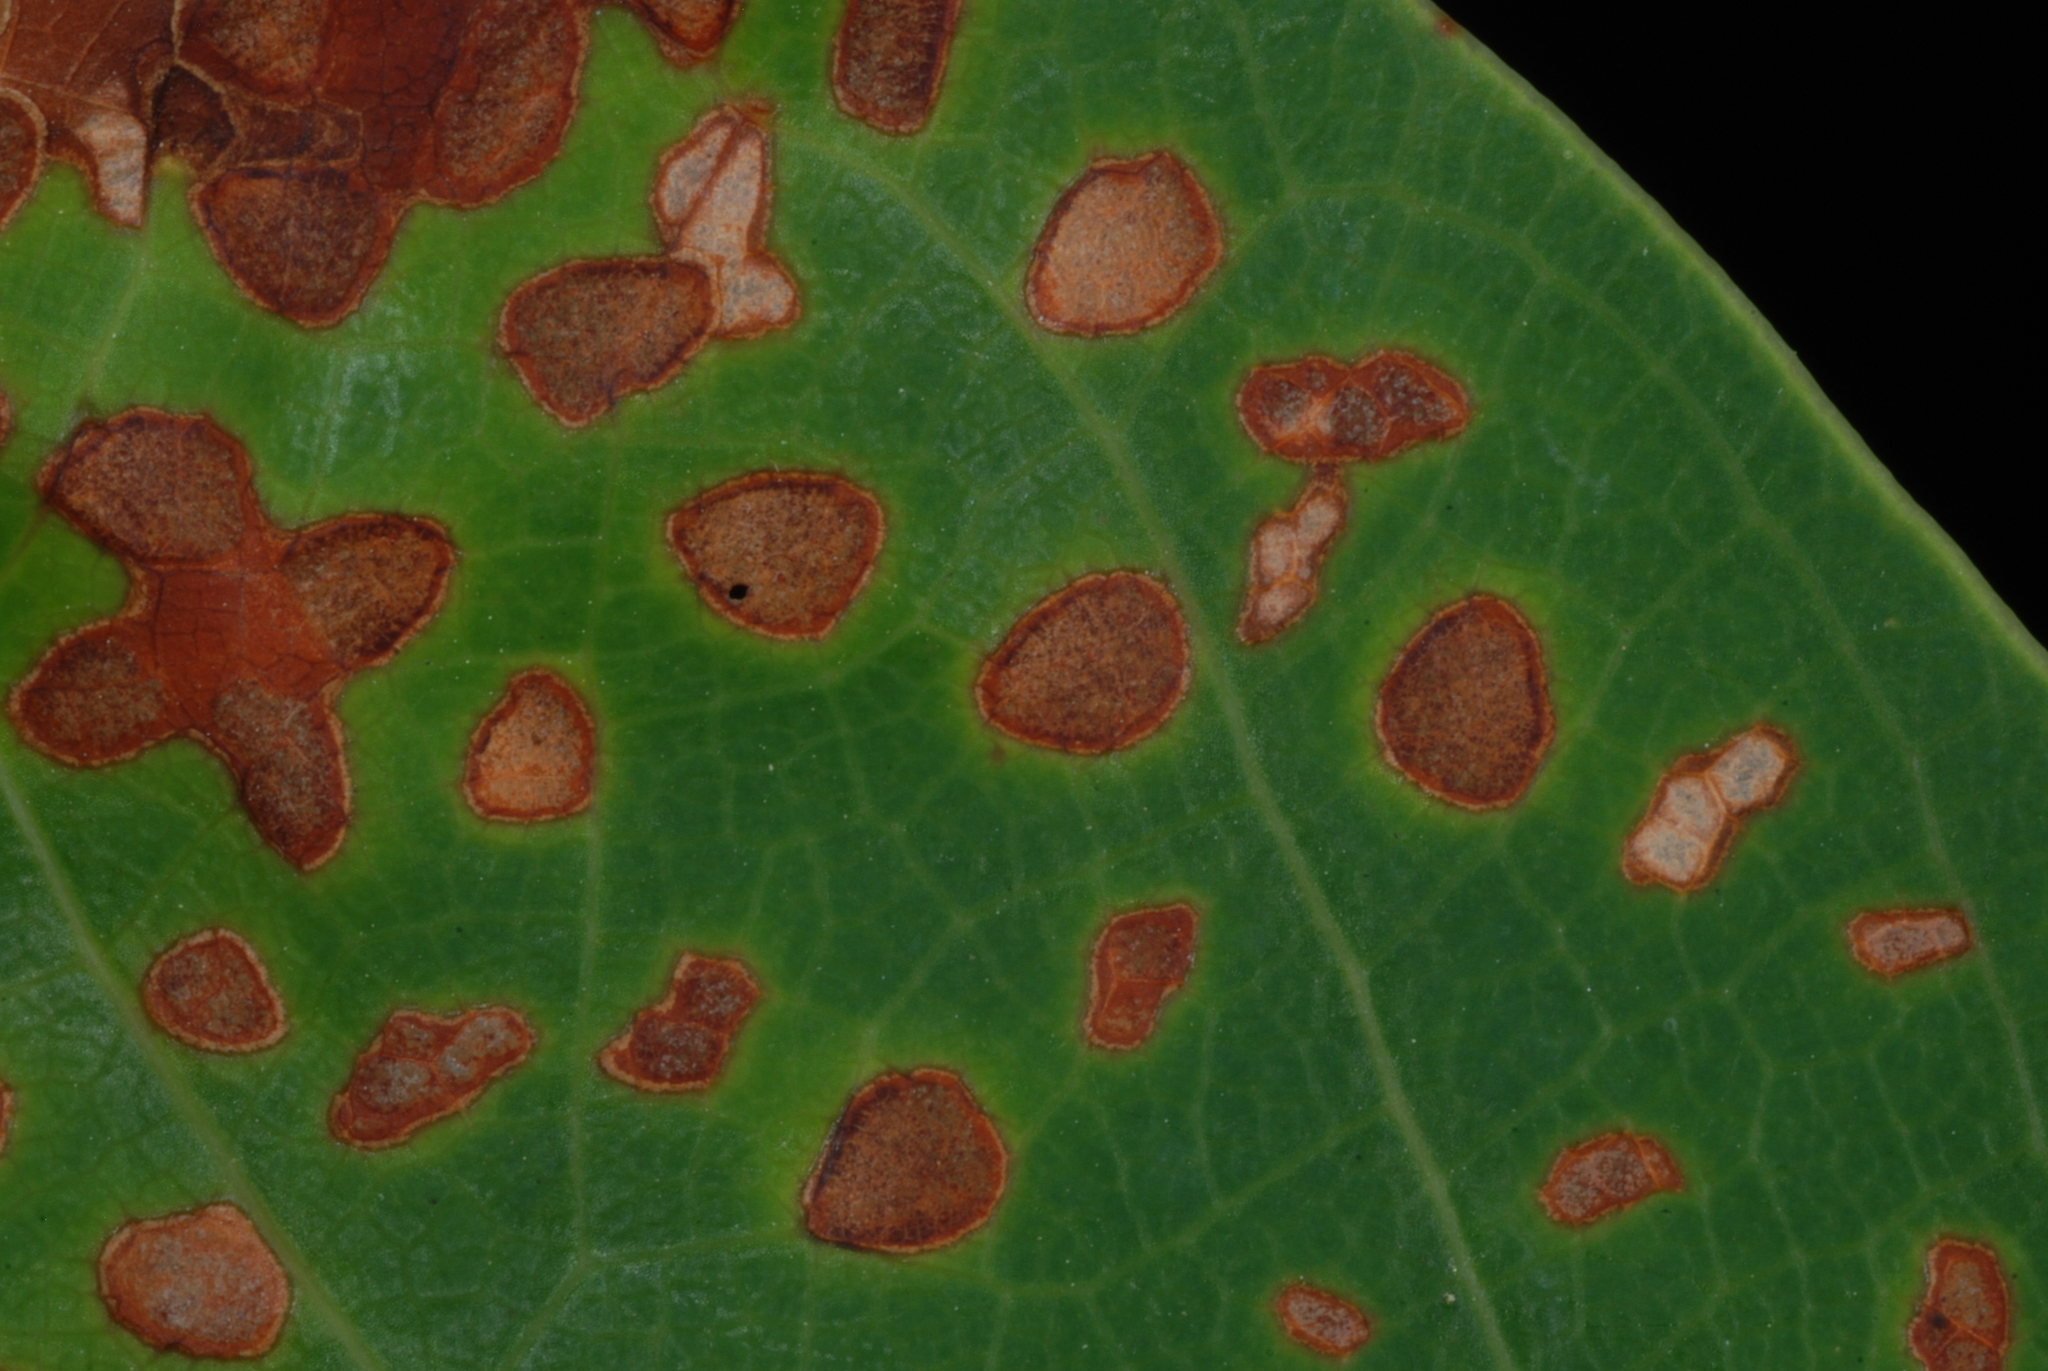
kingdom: Animalia
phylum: Arthropoda
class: Insecta
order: Coleoptera
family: Curculionidae
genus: Odontopus
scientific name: Odontopus calceatus
